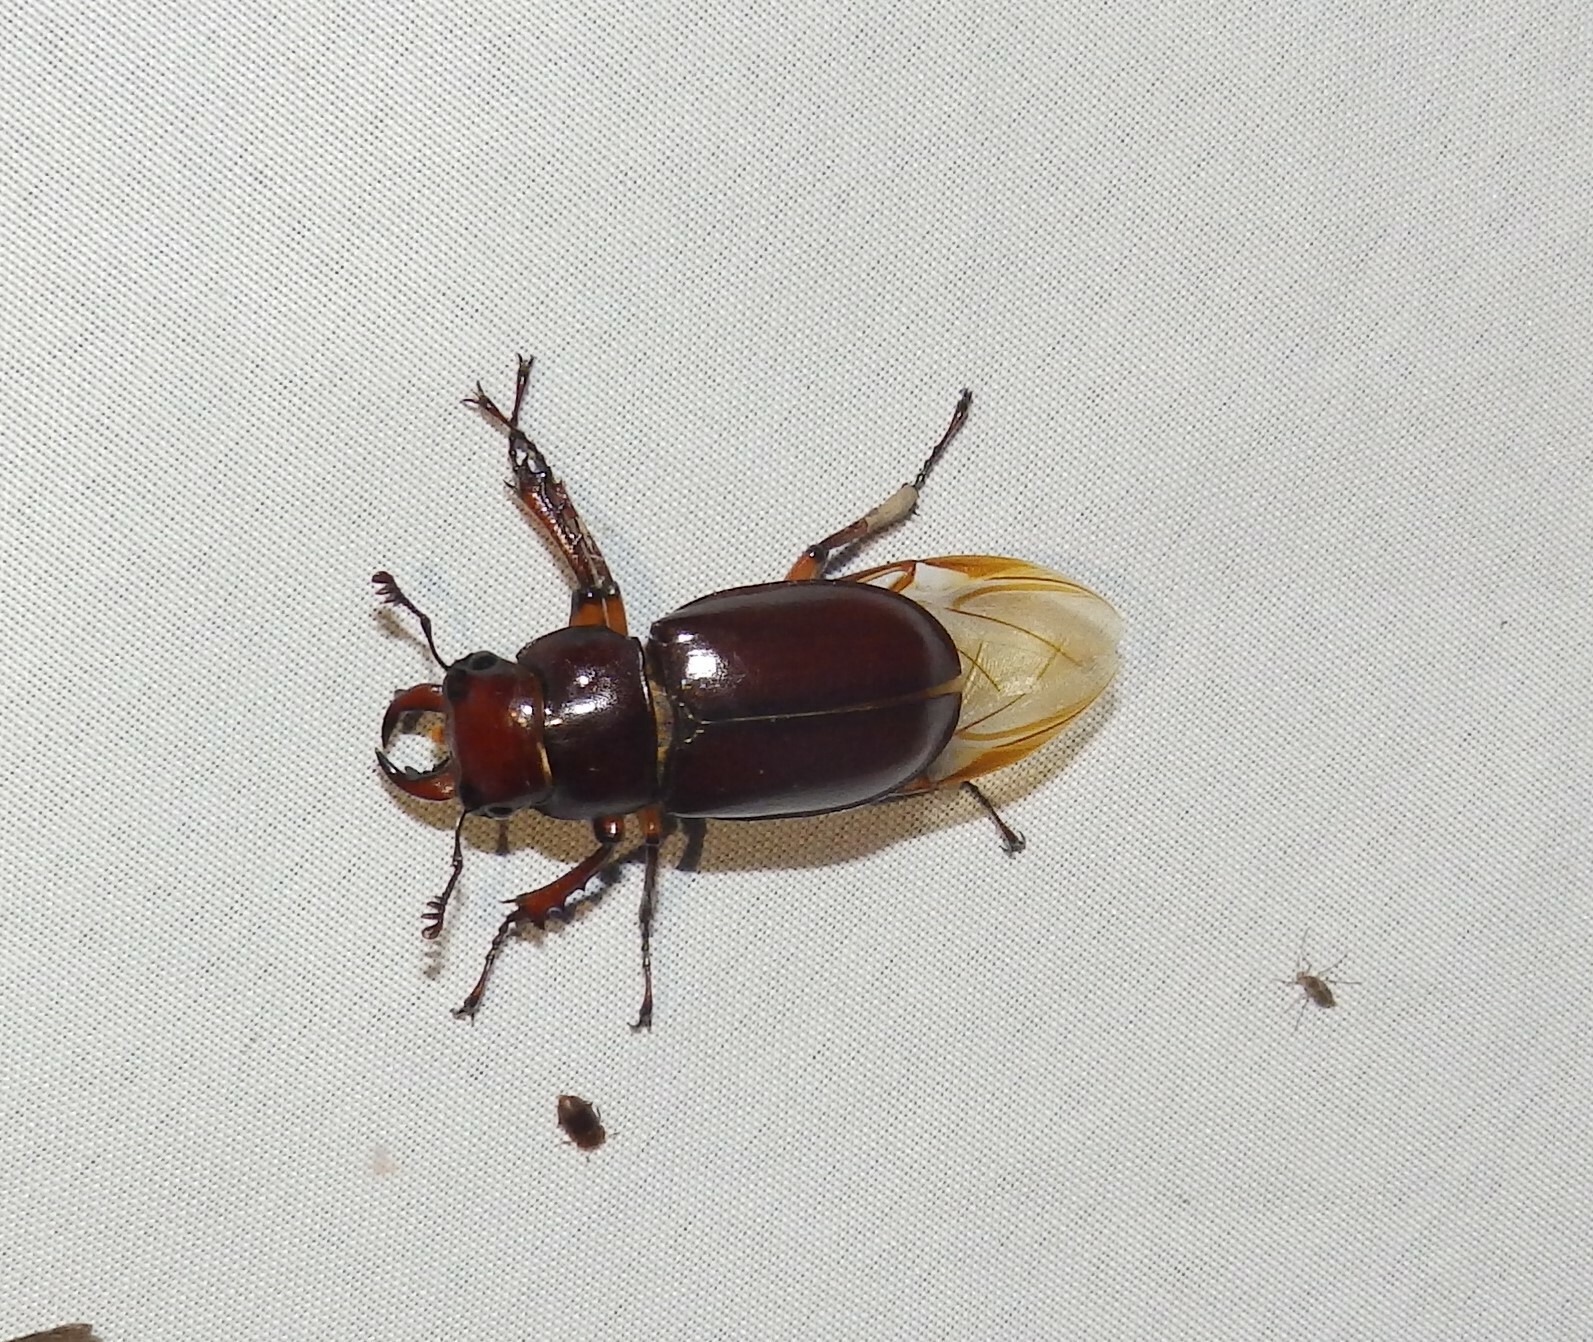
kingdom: Animalia
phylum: Arthropoda
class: Insecta
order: Coleoptera
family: Lucanidae
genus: Lucanus
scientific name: Lucanus capreolus
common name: Stag beetle
